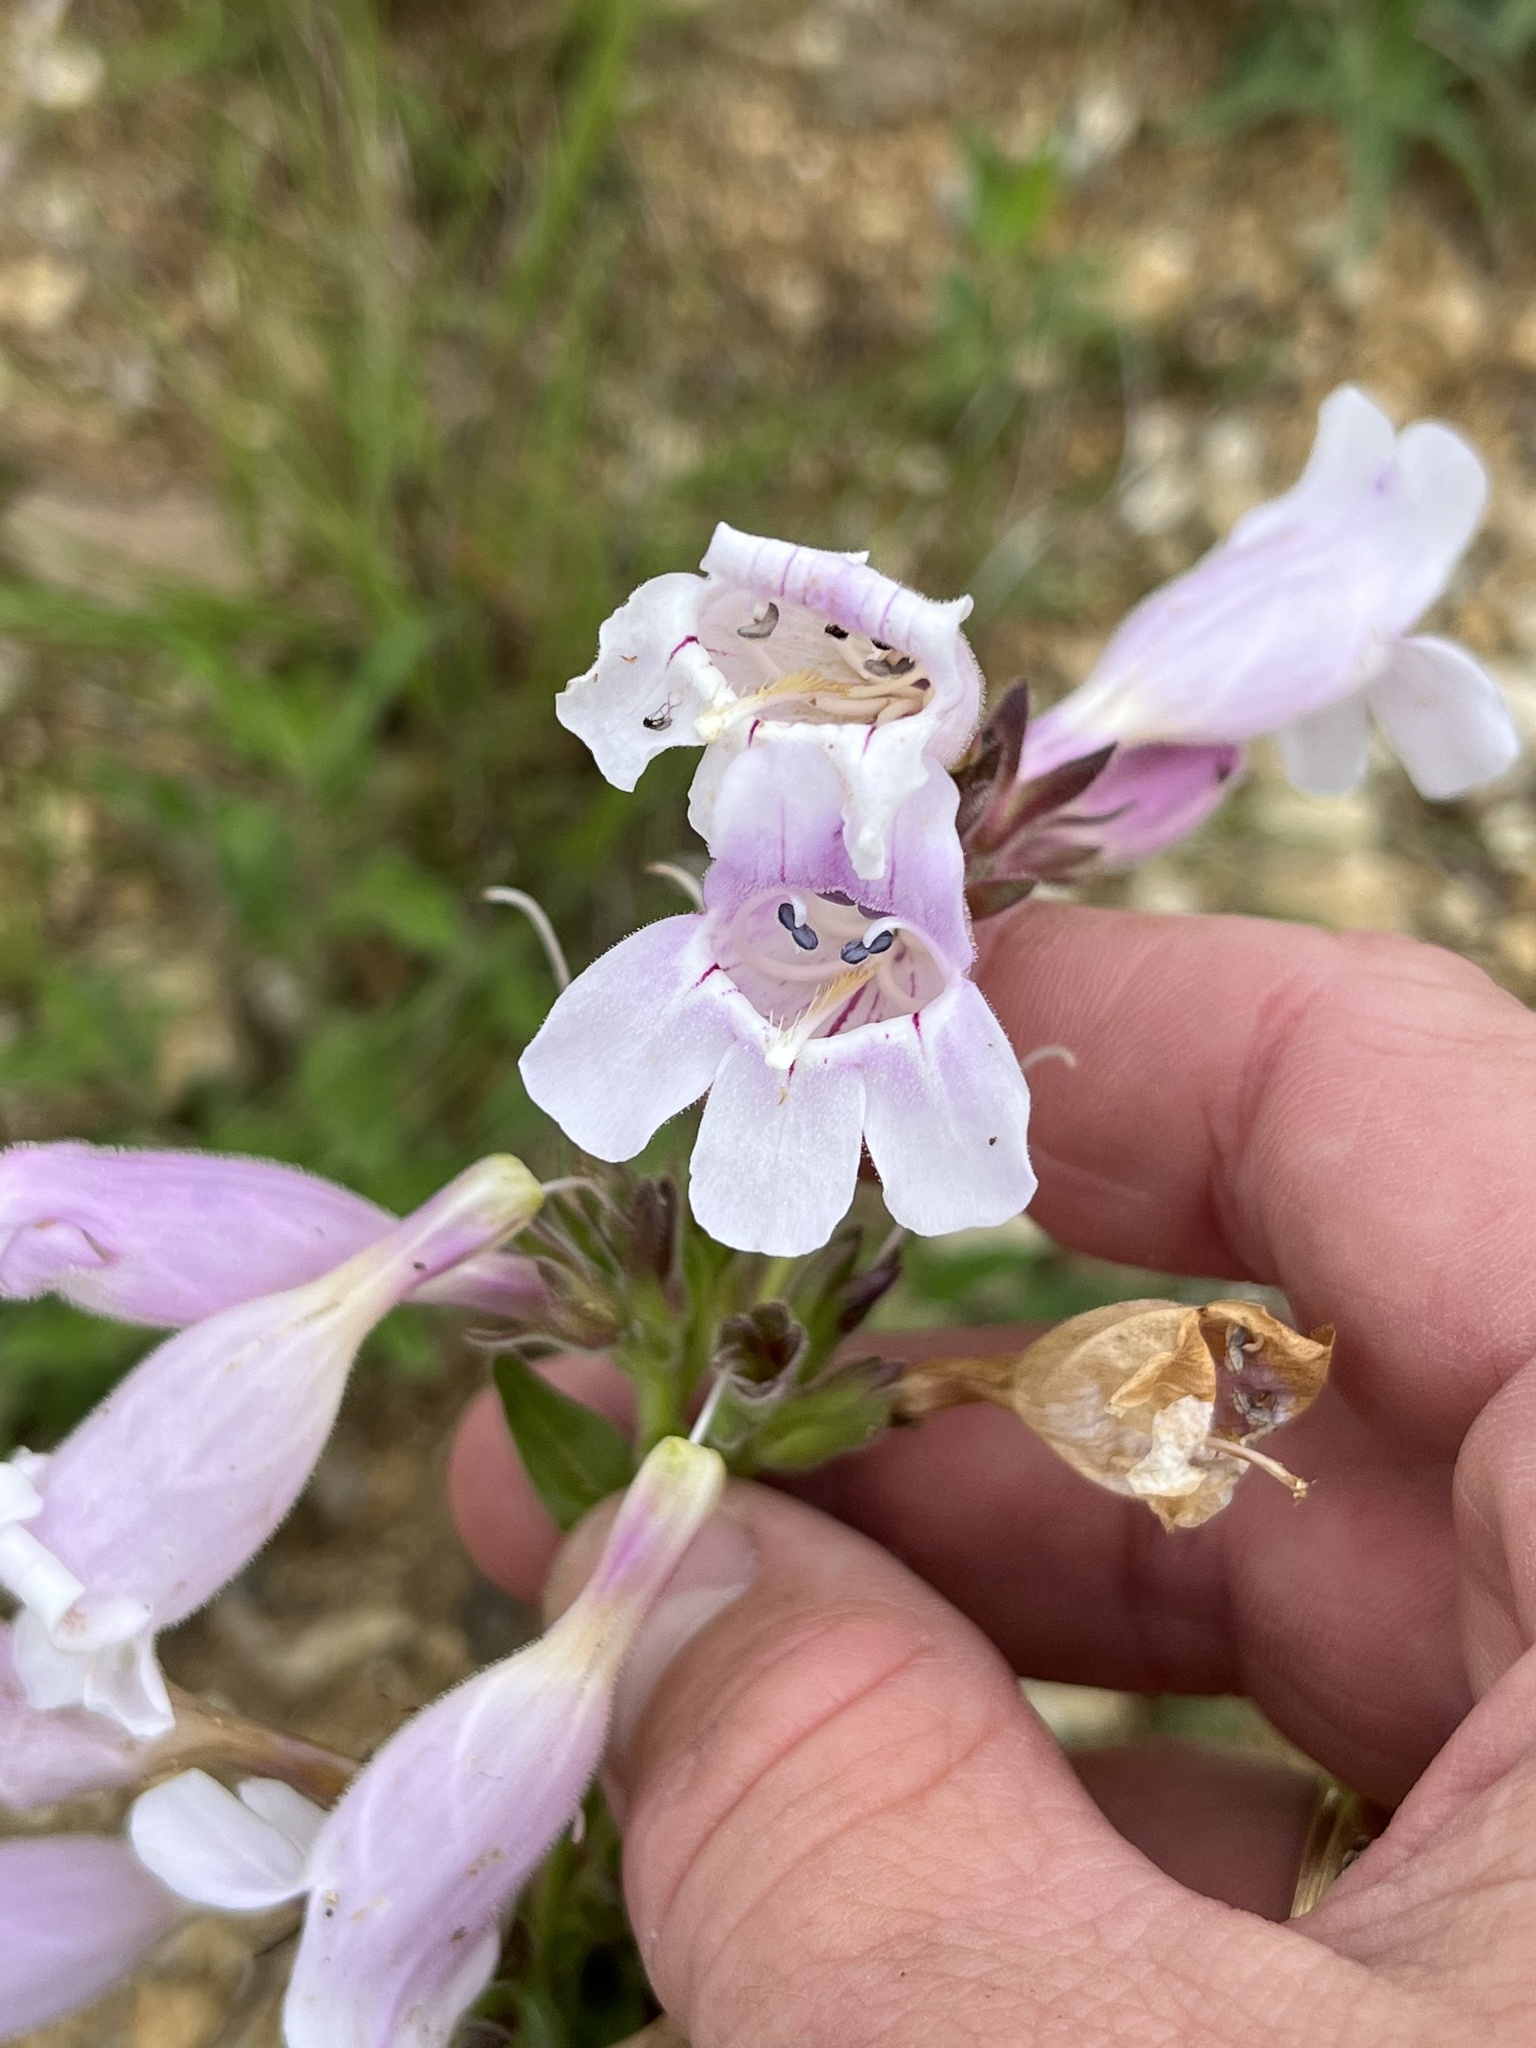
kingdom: Plantae
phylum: Tracheophyta
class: Magnoliopsida
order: Lamiales
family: Plantaginaceae
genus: Penstemon
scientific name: Penstemon cobaea
